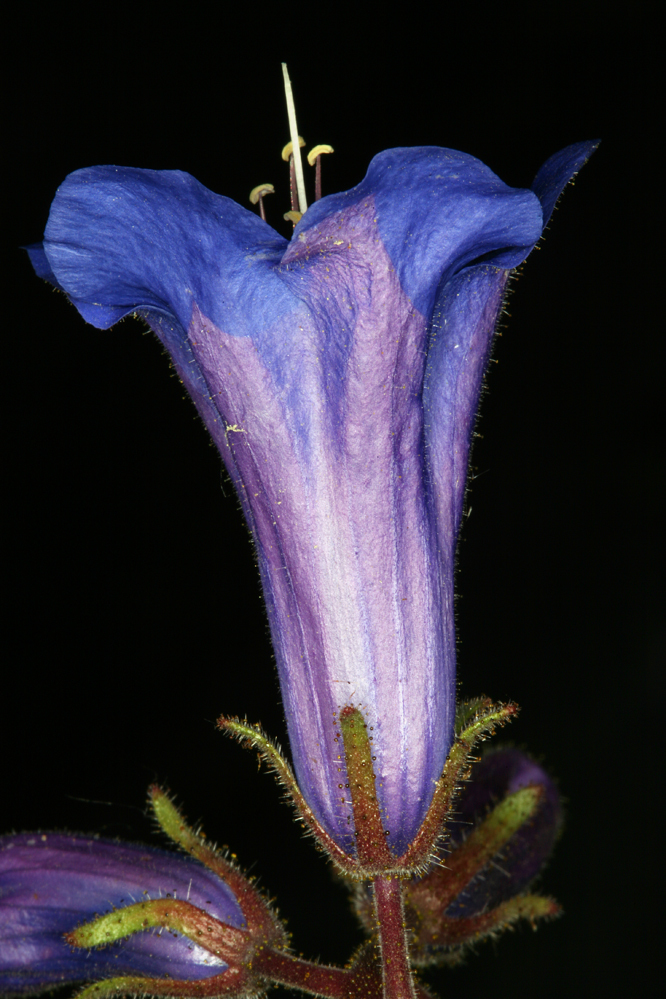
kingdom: Plantae
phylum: Tracheophyta
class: Magnoliopsida
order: Boraginales
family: Hydrophyllaceae
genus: Phacelia
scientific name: Phacelia campanularia
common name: California bluebell
